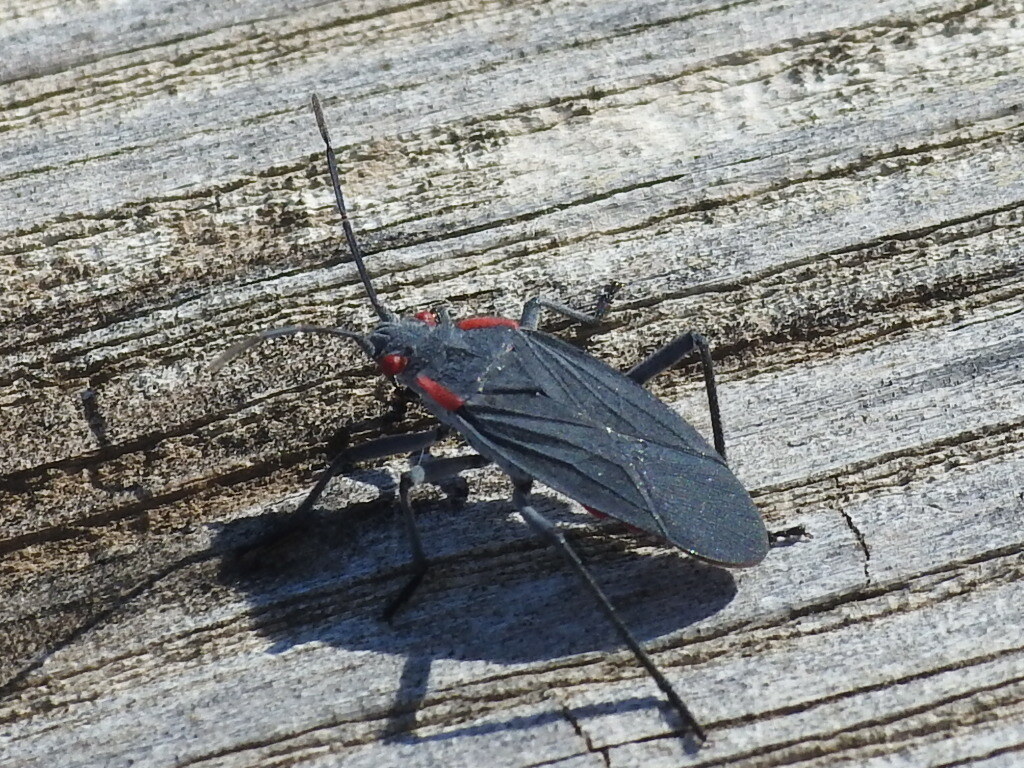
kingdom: Animalia
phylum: Arthropoda
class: Insecta
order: Hemiptera
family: Rhopalidae
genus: Jadera
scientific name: Jadera haematoloma
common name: Red-shouldered bug
